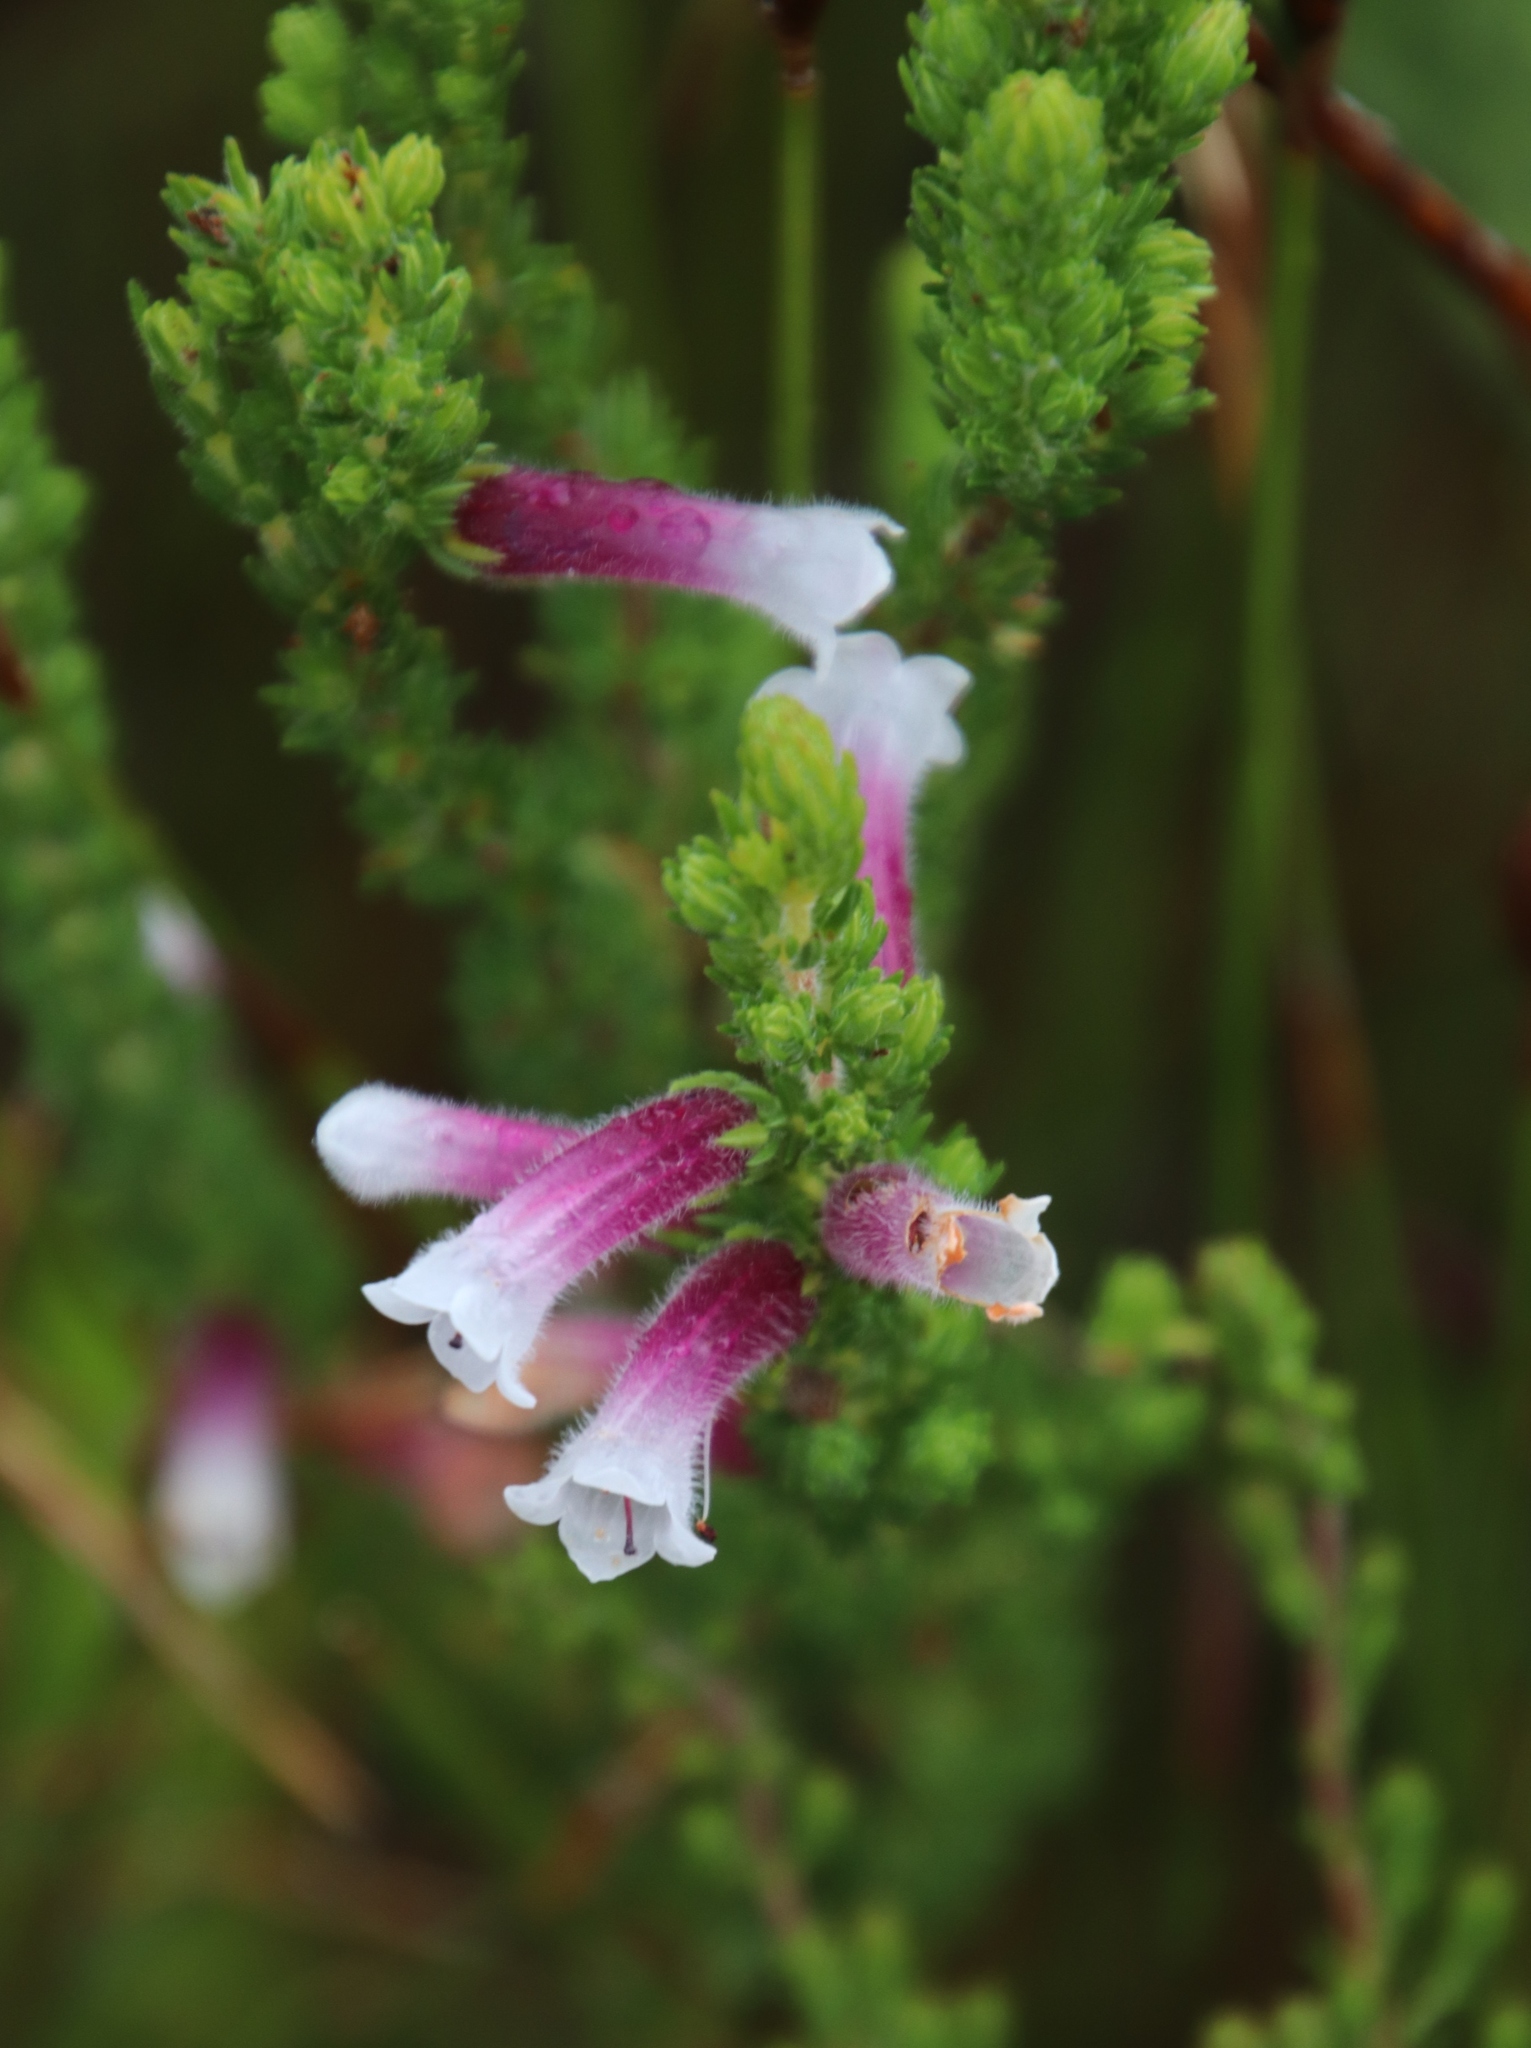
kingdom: Plantae
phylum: Tracheophyta
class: Magnoliopsida
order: Ericales
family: Ericaceae
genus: Erica
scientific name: Erica macowanii
